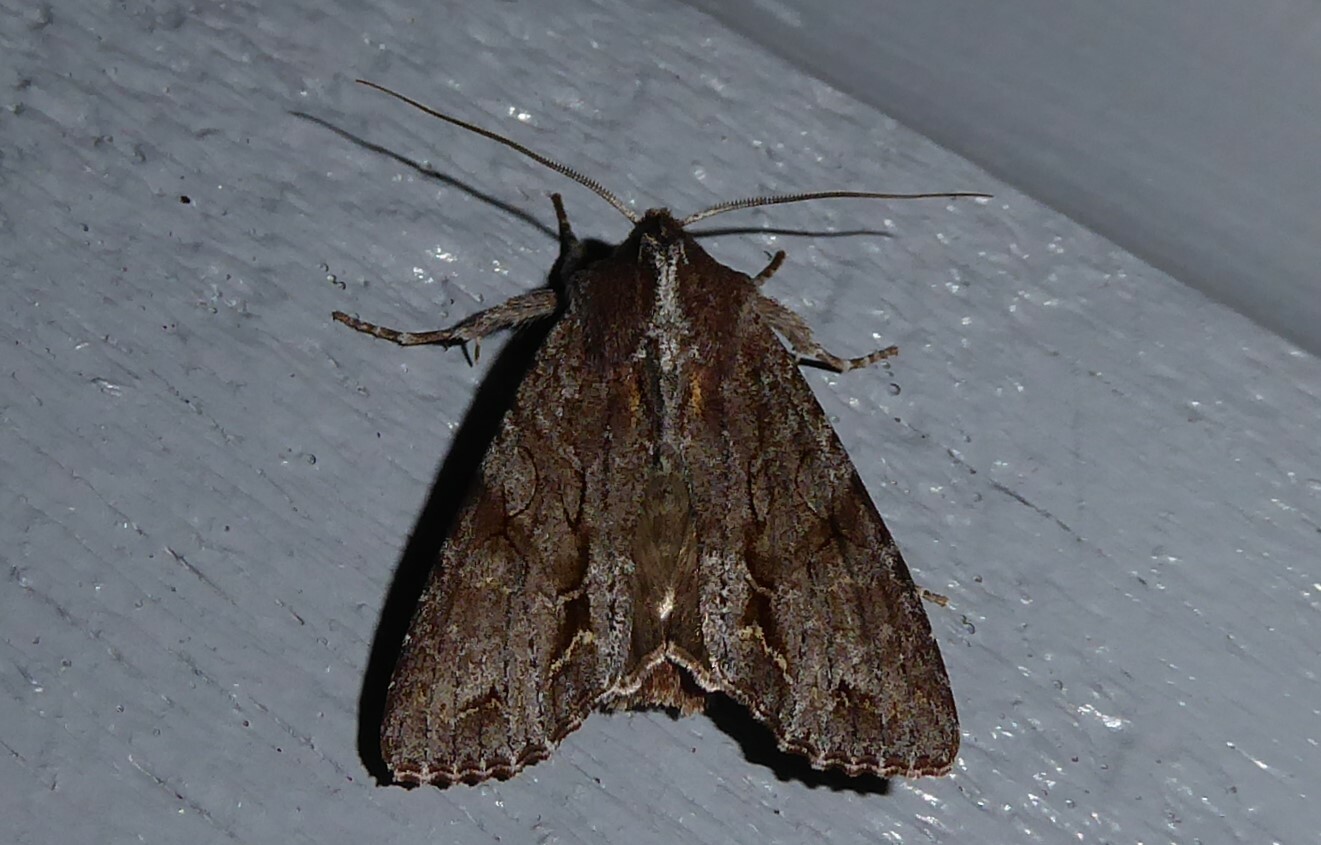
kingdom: Animalia
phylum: Arthropoda
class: Insecta
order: Lepidoptera
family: Noctuidae
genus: Ichneutica
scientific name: Ichneutica
